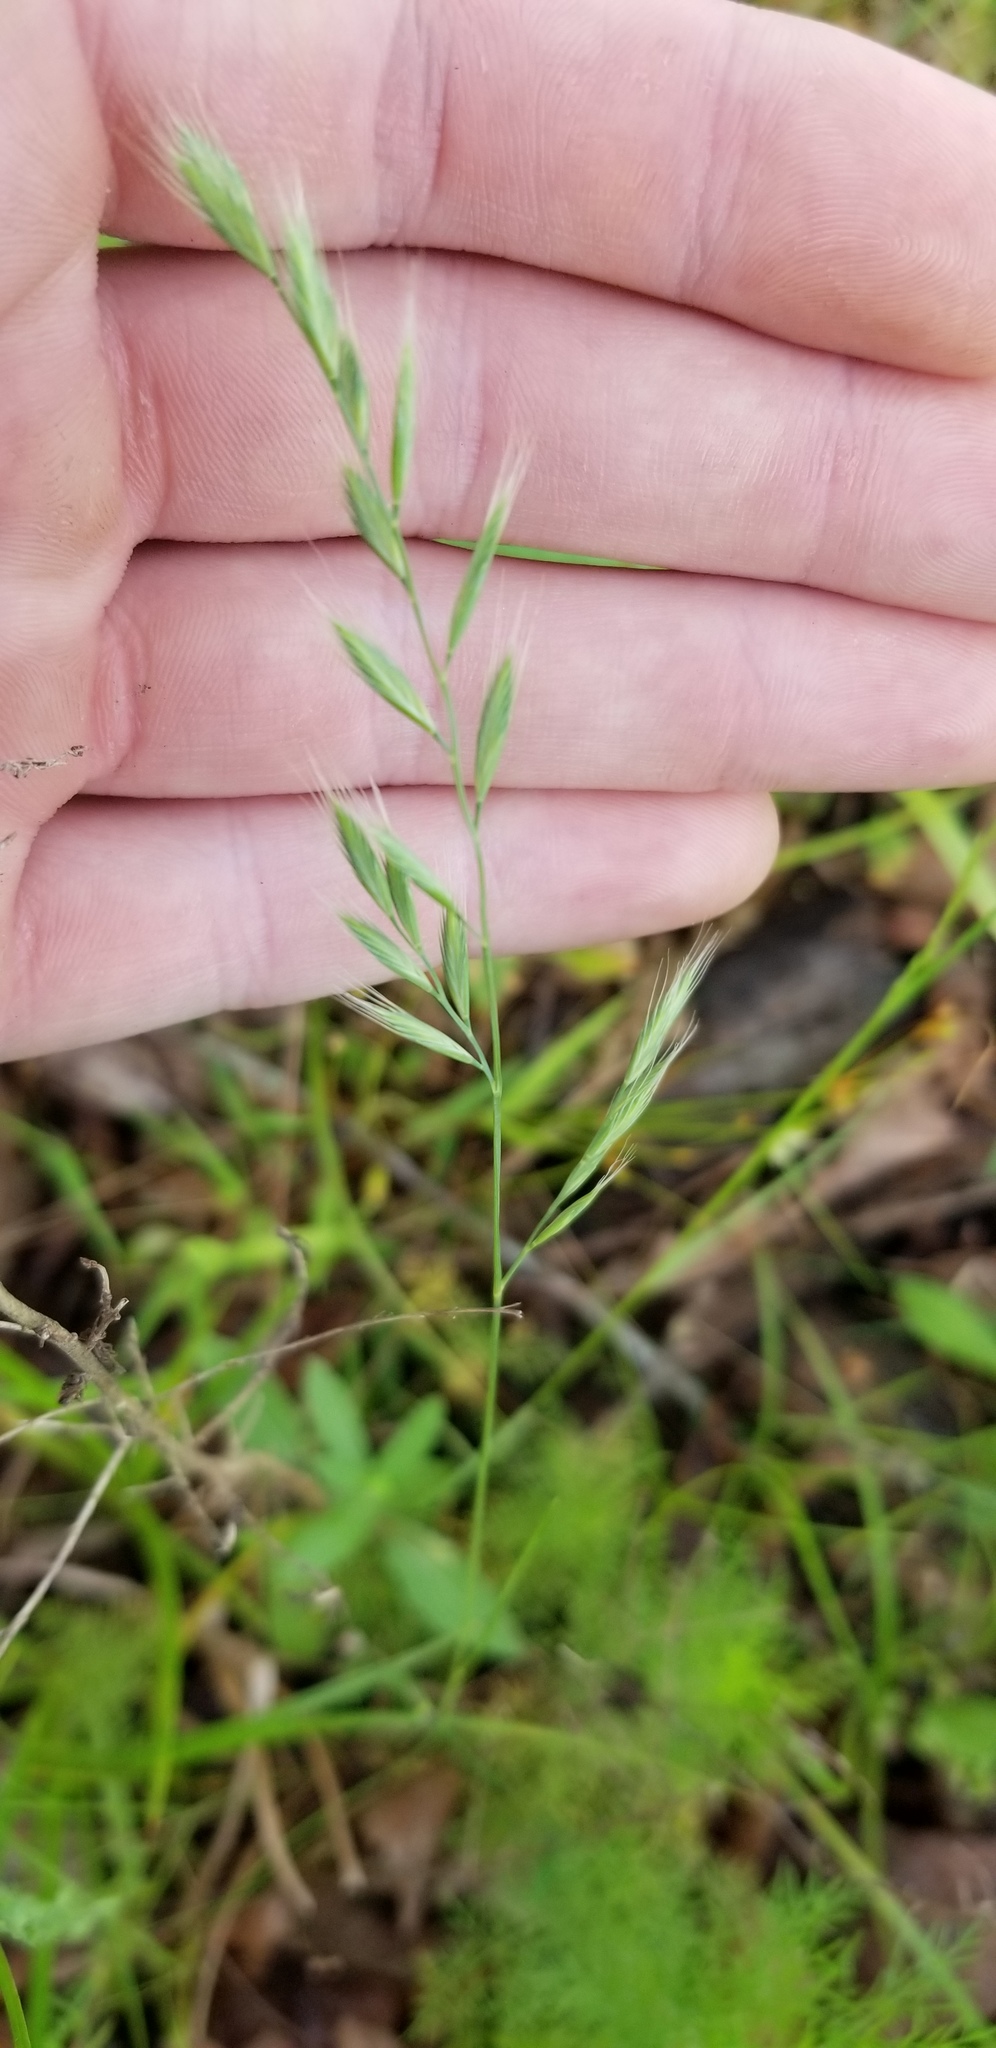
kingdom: Plantae
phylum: Tracheophyta
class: Liliopsida
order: Poales
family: Poaceae
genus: Festuca
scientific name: Festuca octoflora
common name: Sixweeks grass
